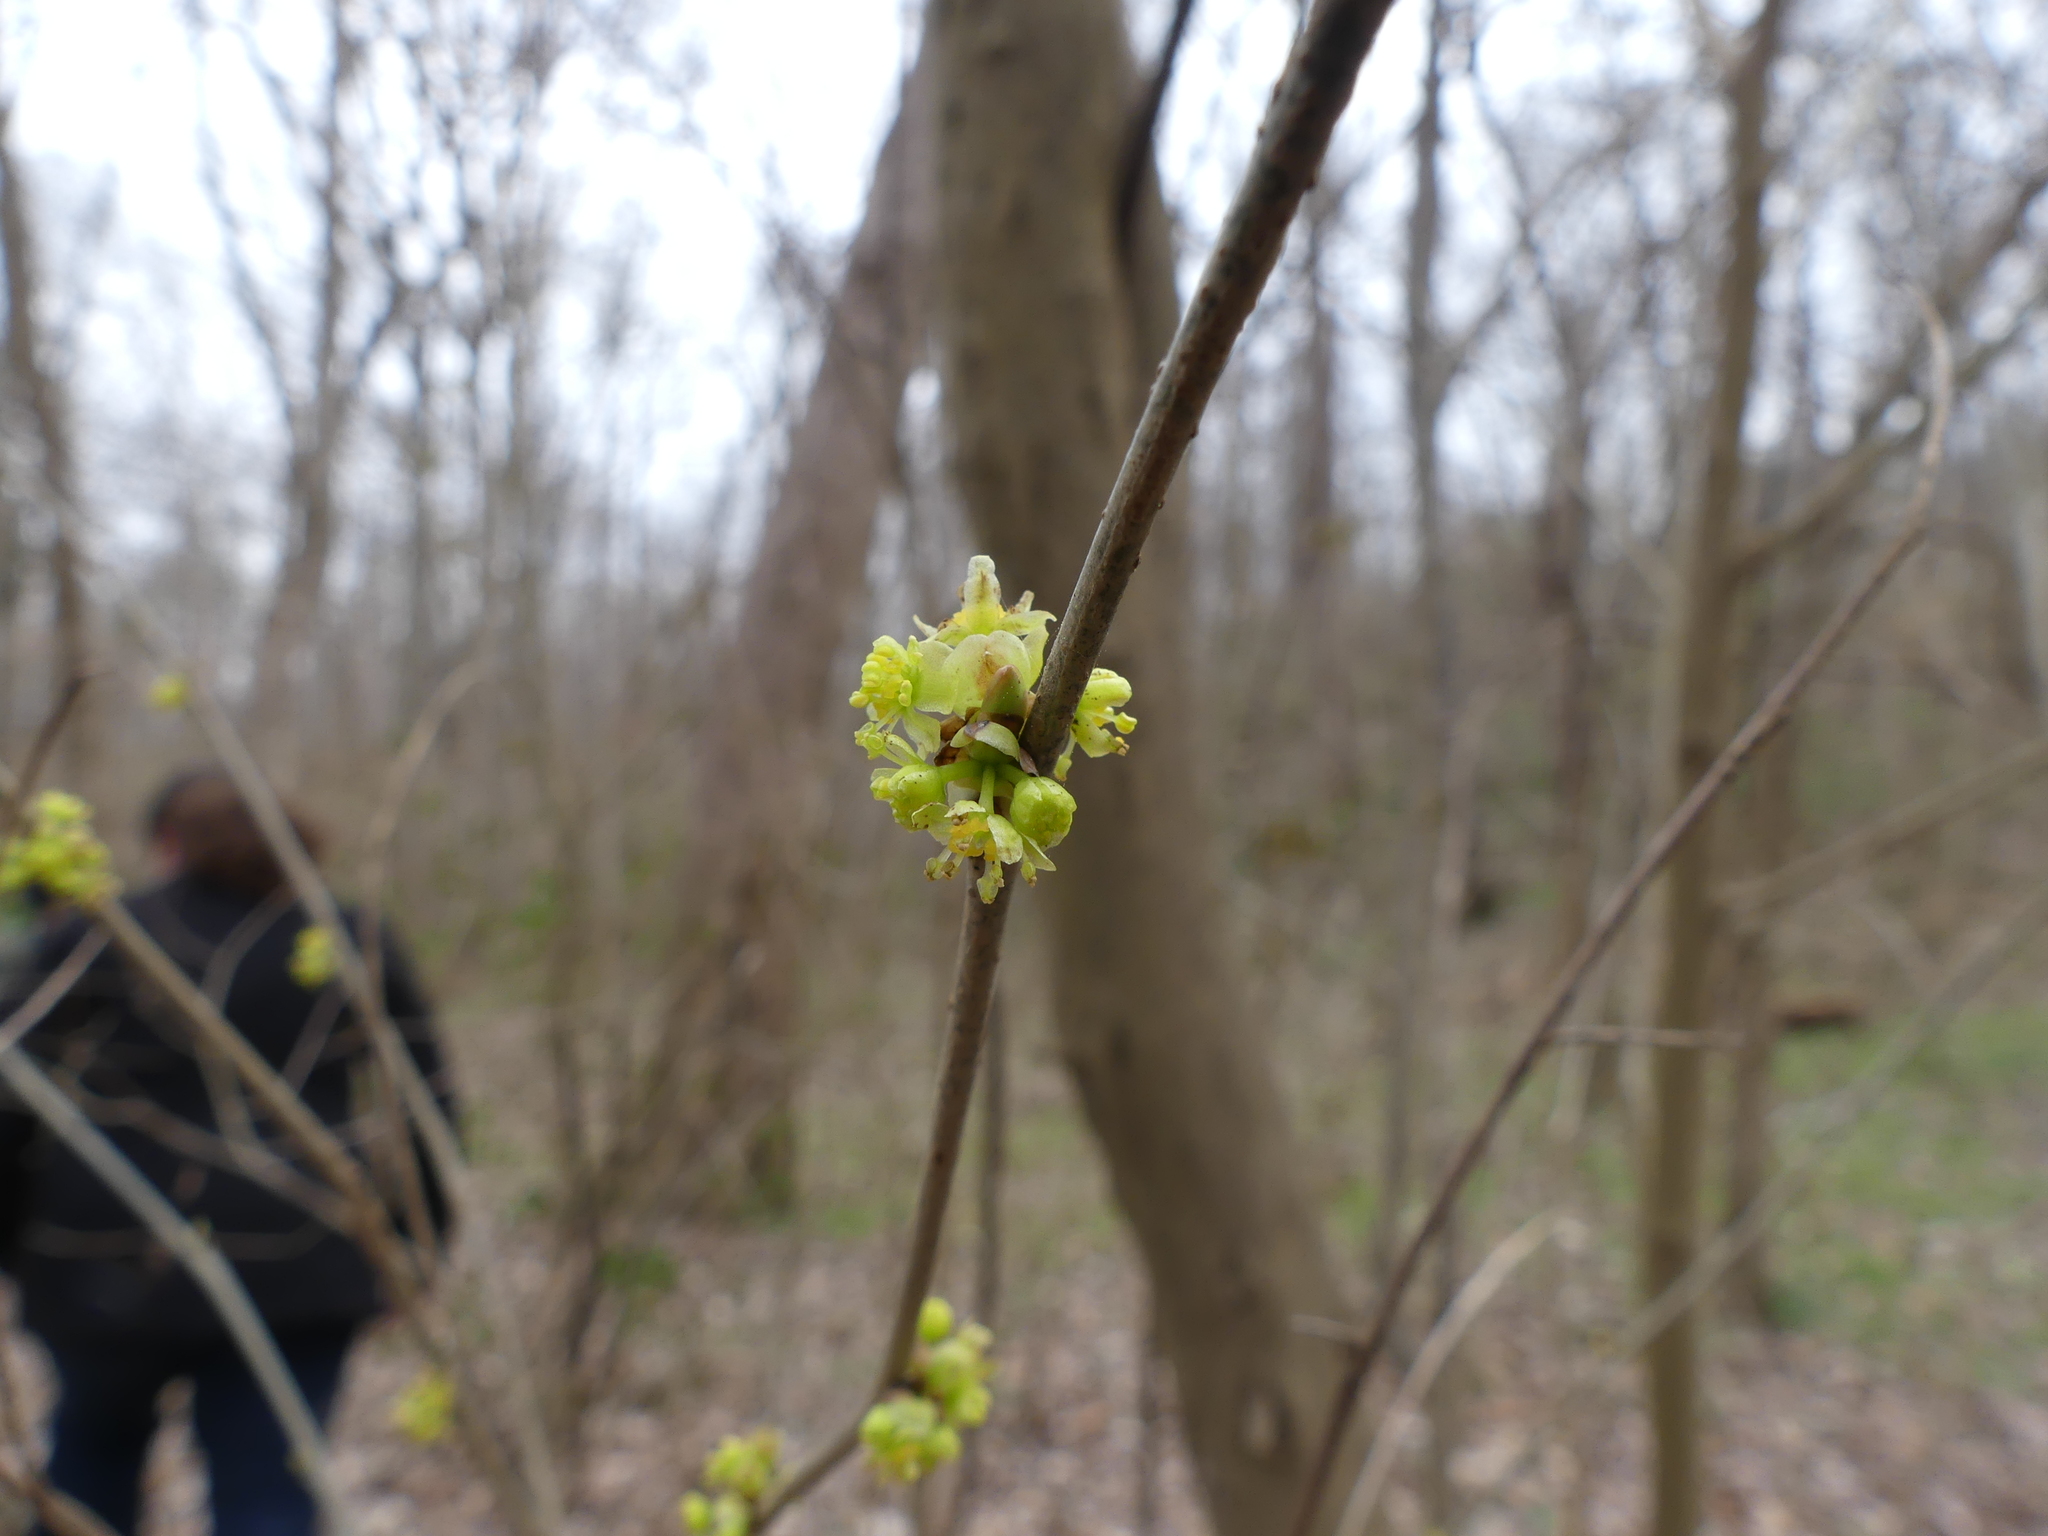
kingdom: Plantae
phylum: Tracheophyta
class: Magnoliopsida
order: Laurales
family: Lauraceae
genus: Lindera
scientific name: Lindera benzoin
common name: Spicebush
